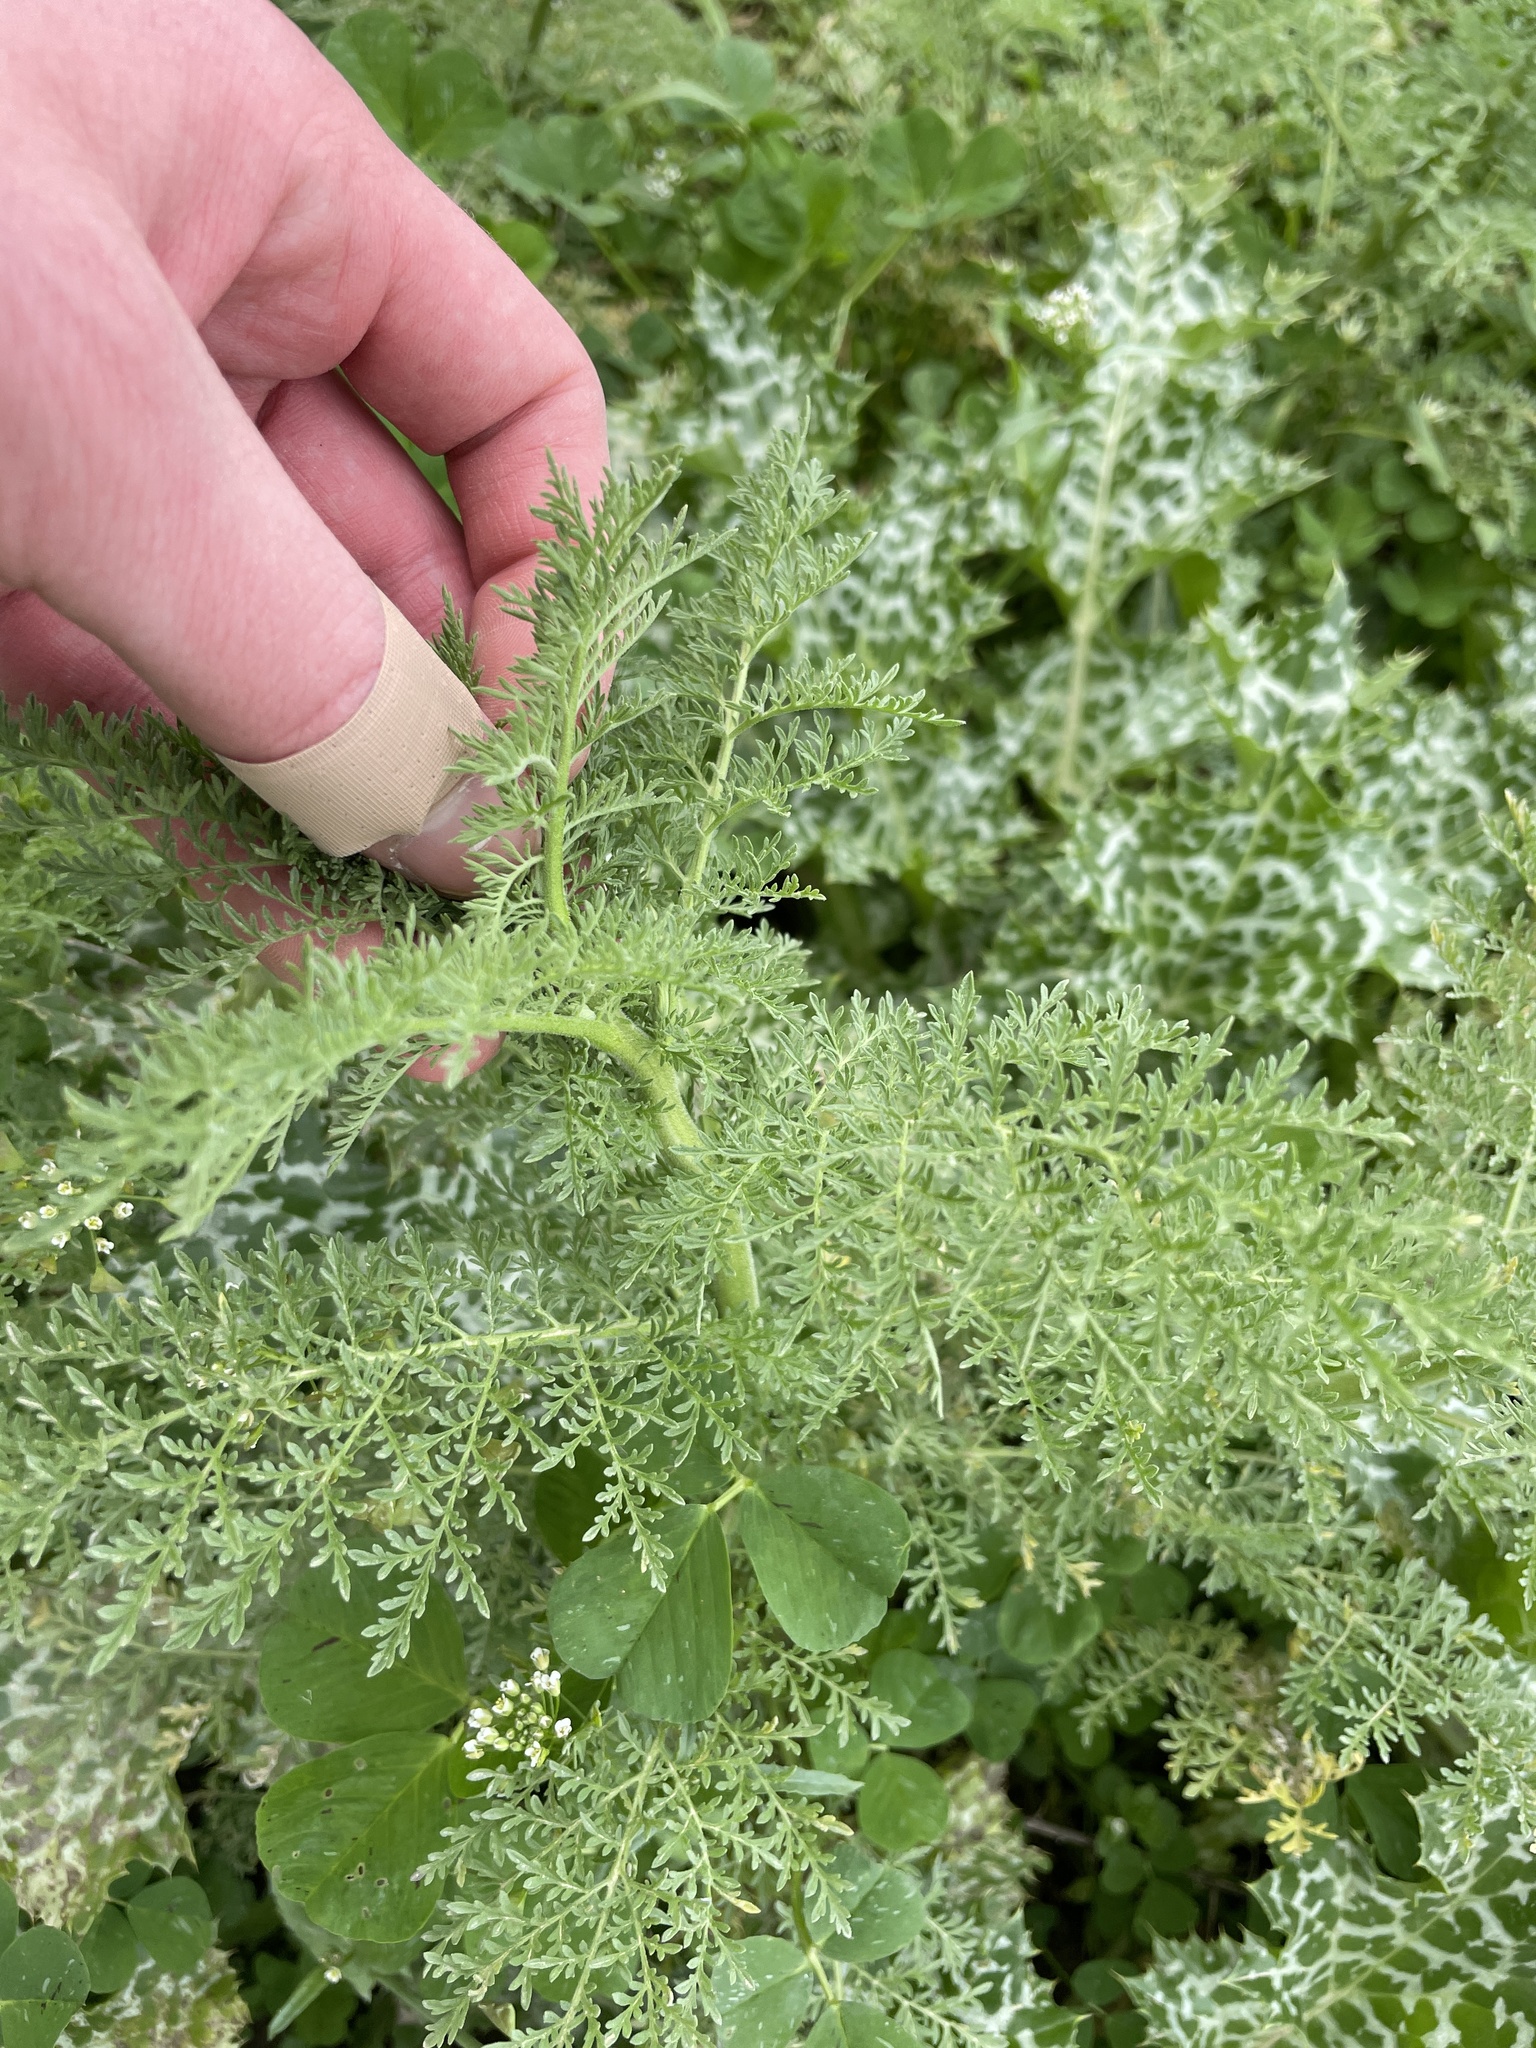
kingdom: Plantae
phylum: Tracheophyta
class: Magnoliopsida
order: Brassicales
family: Brassicaceae
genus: Descurainia
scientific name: Descurainia sophia
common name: Flixweed
